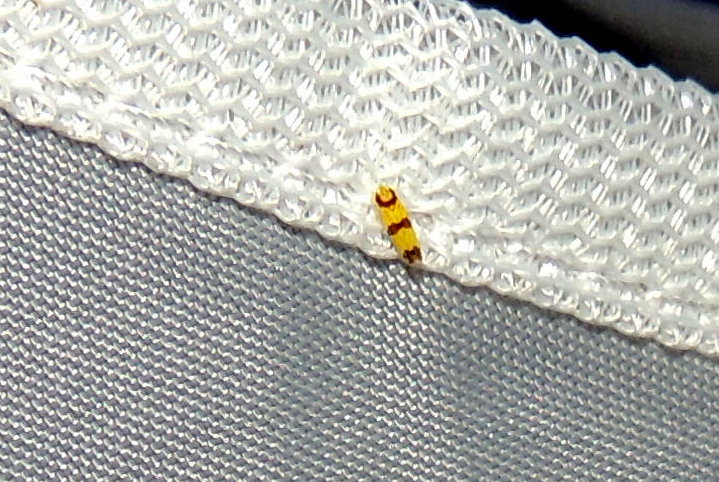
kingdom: Animalia
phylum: Arthropoda
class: Insecta
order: Hemiptera
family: Cicadellidae
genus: Erythroneura
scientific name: Erythroneura calycula
